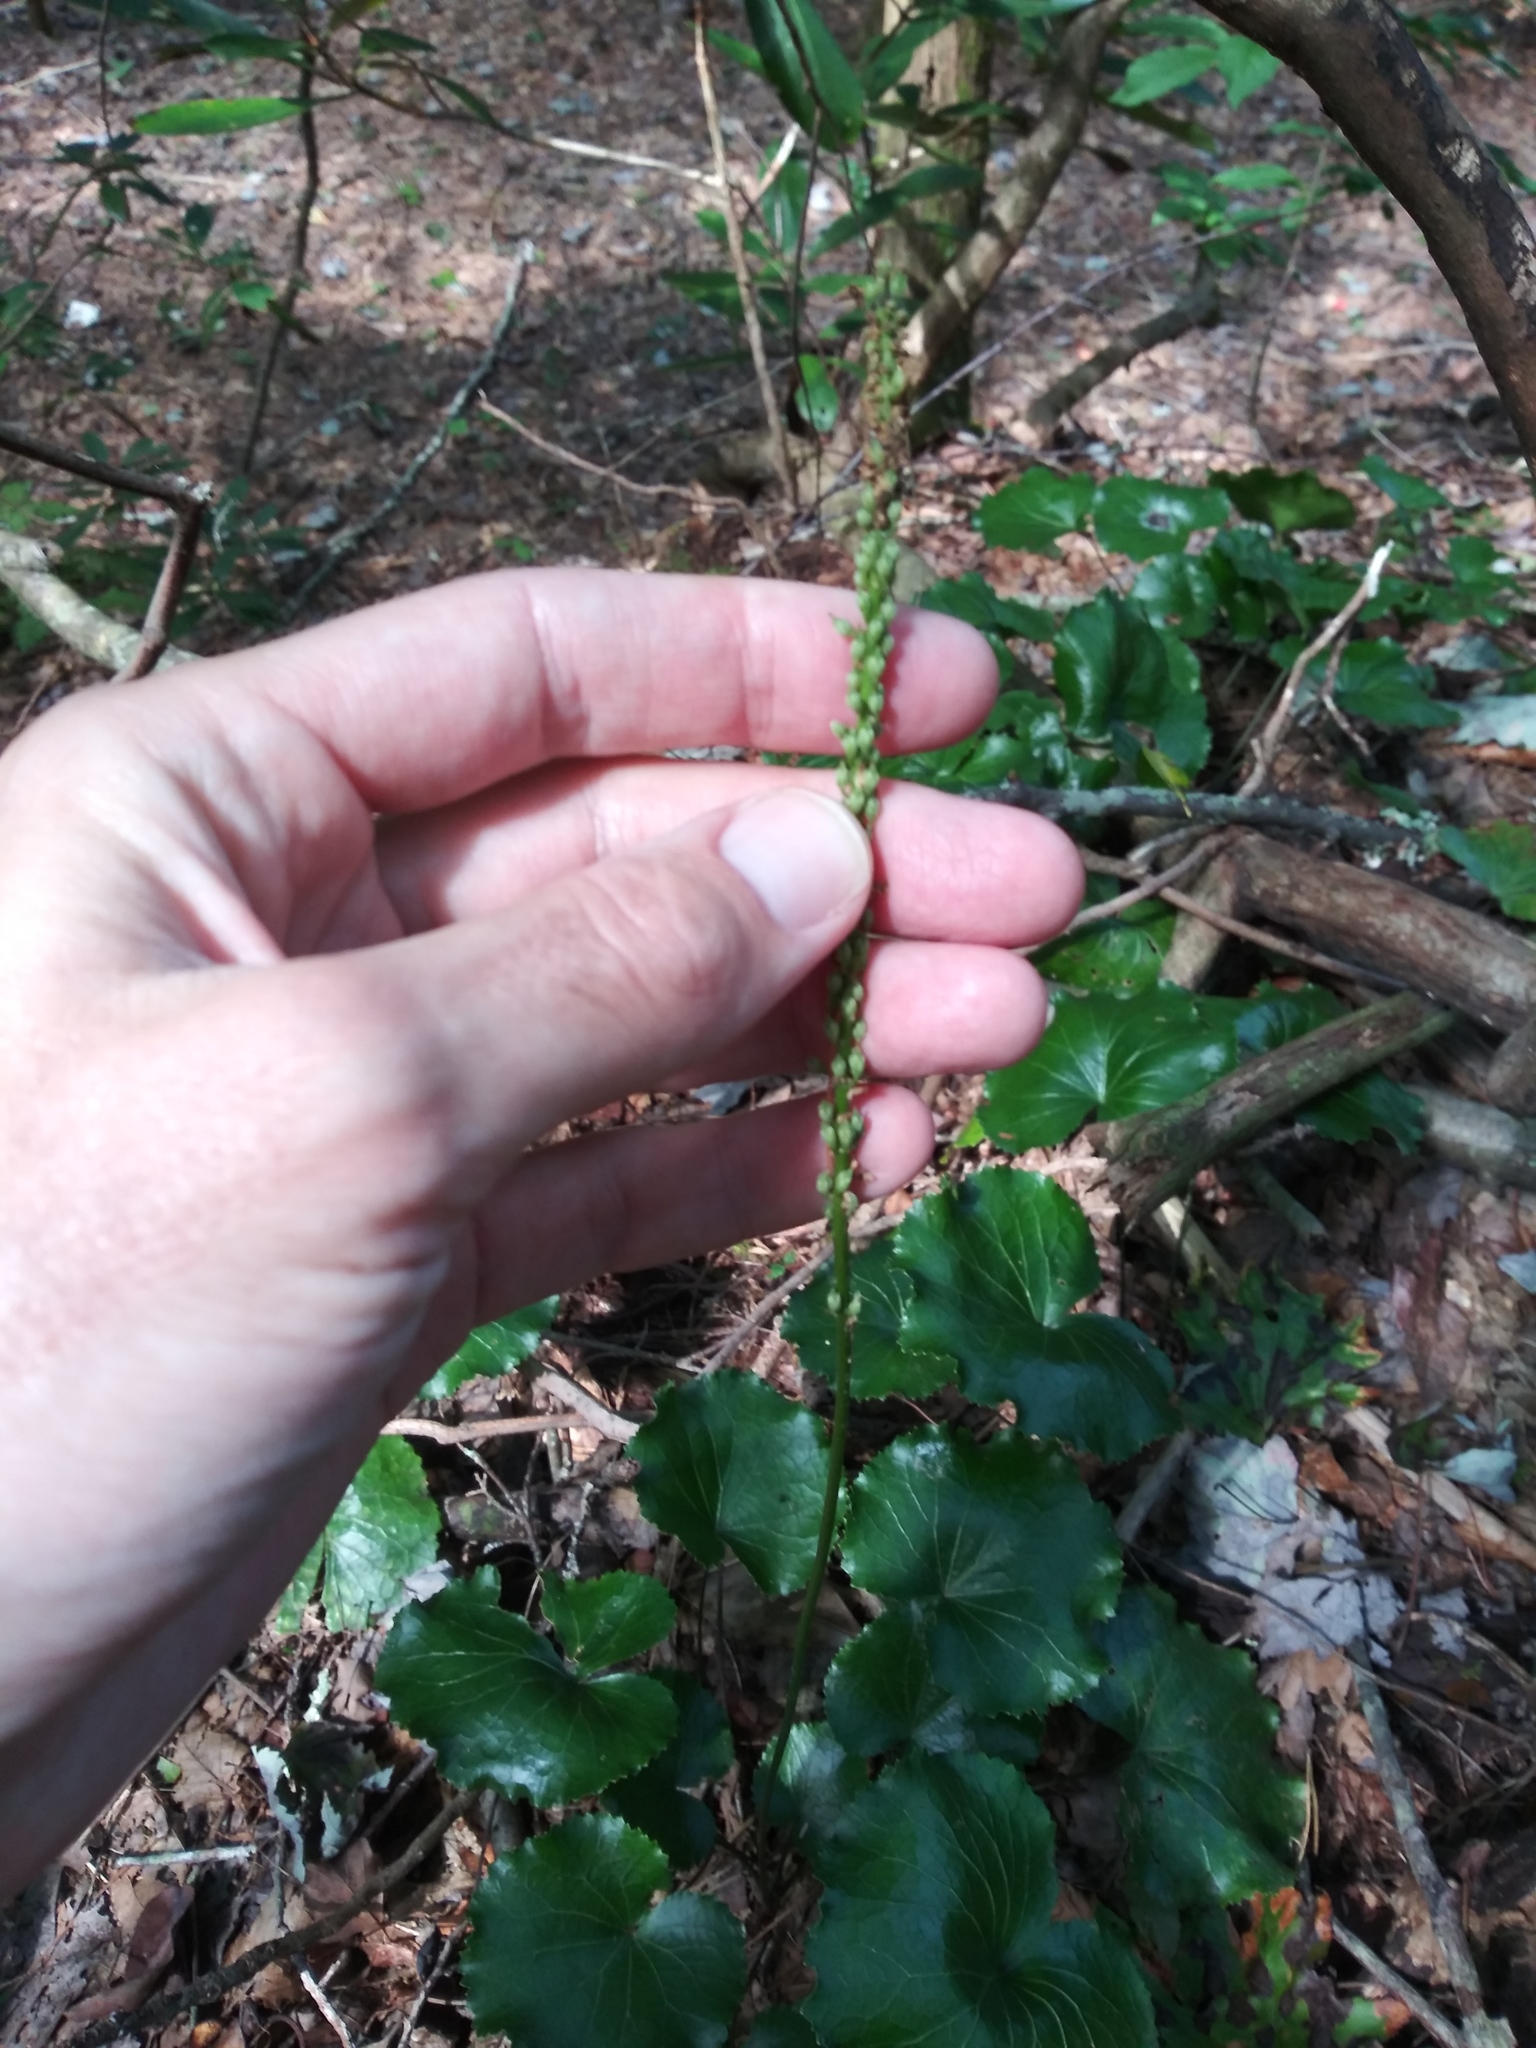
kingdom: Plantae
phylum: Tracheophyta
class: Magnoliopsida
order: Ericales
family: Diapensiaceae
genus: Galax
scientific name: Galax urceolata
